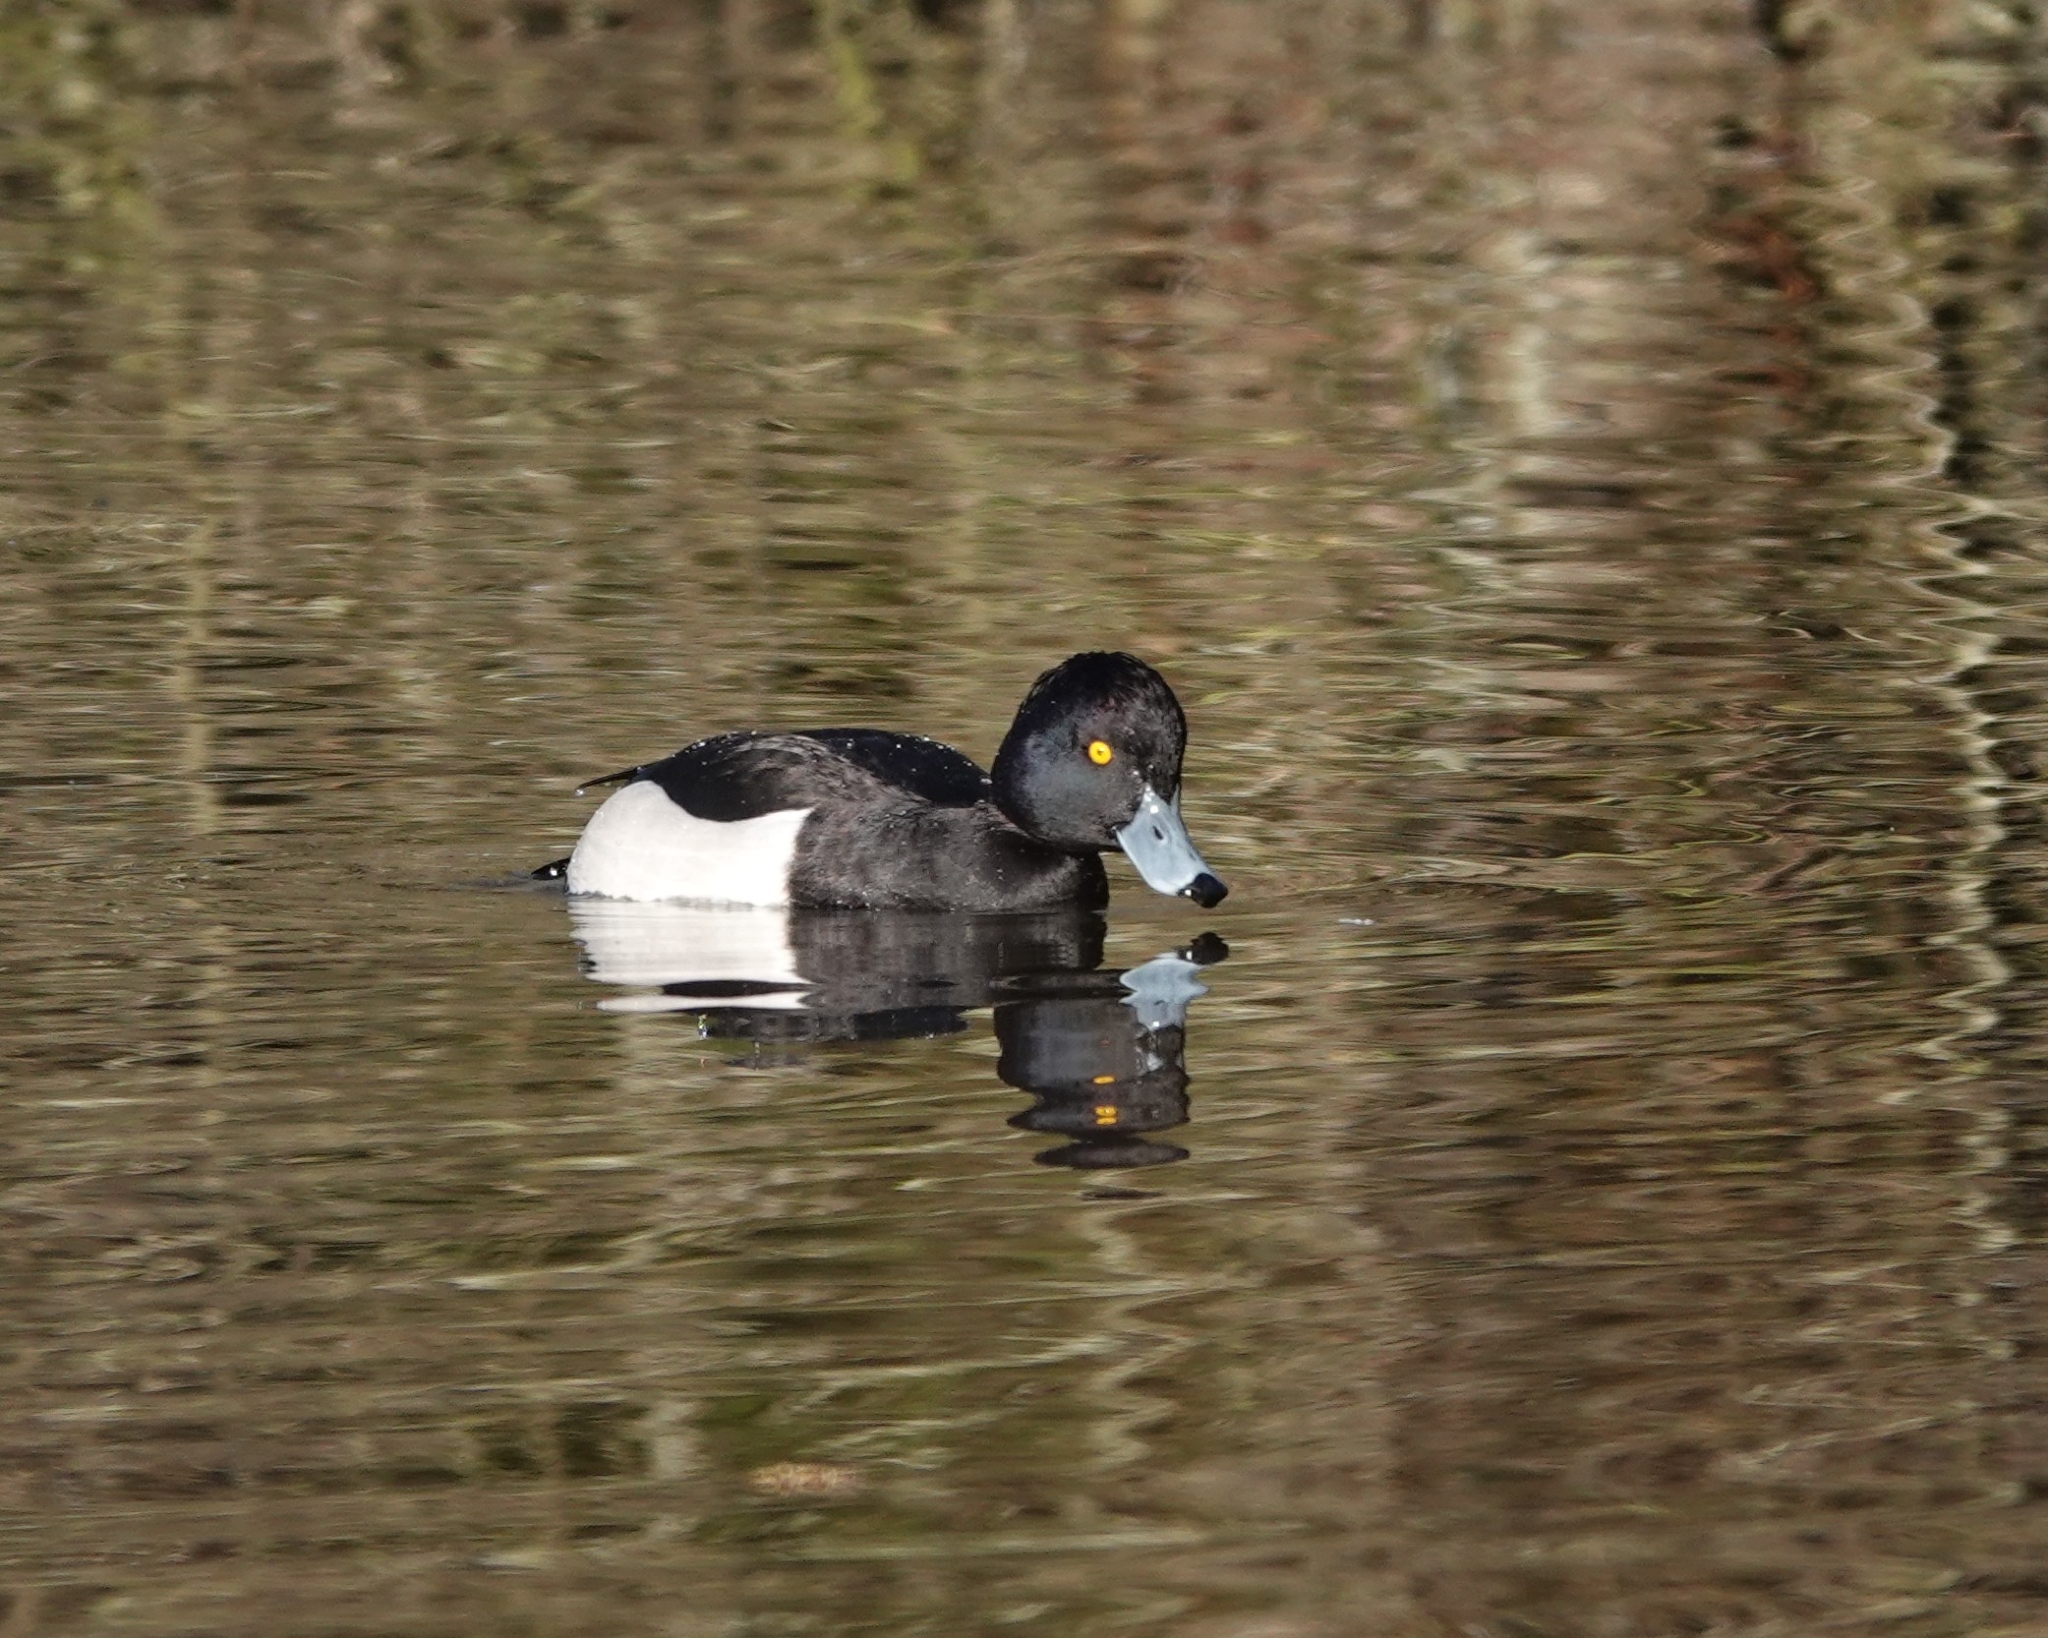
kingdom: Animalia
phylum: Chordata
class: Aves
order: Anseriformes
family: Anatidae
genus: Aythya
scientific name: Aythya fuligula
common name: Tufted duck
